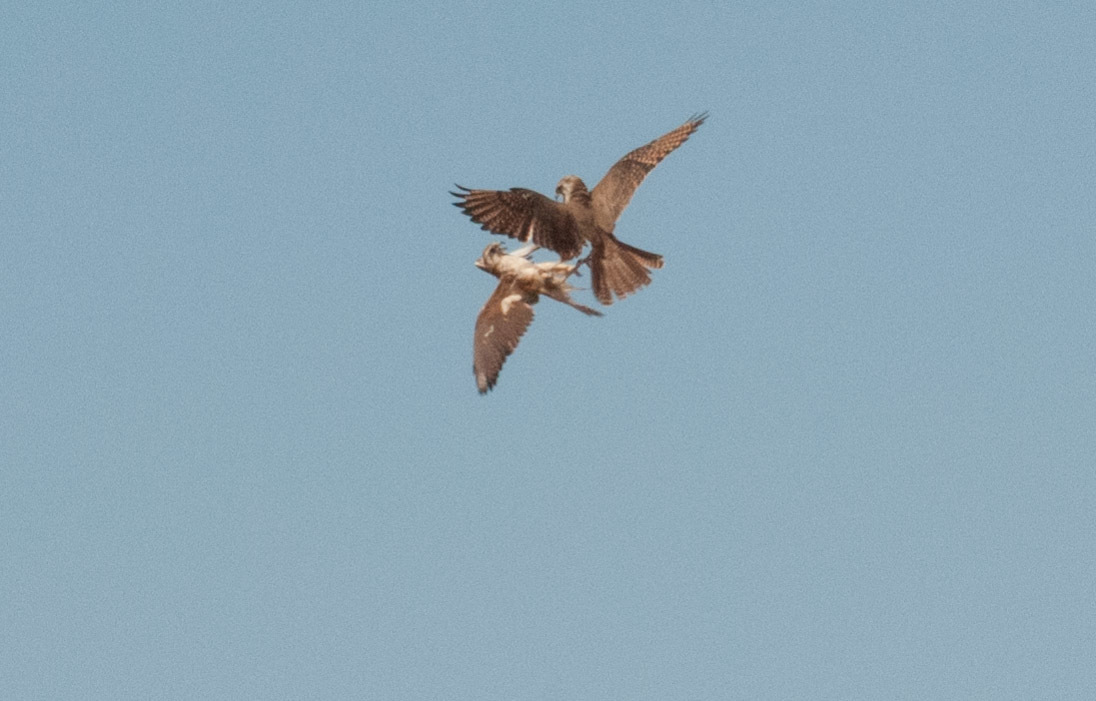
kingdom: Animalia
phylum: Chordata
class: Aves
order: Falconiformes
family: Falconidae
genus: Falco
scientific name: Falco berigora
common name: Brown falcon
